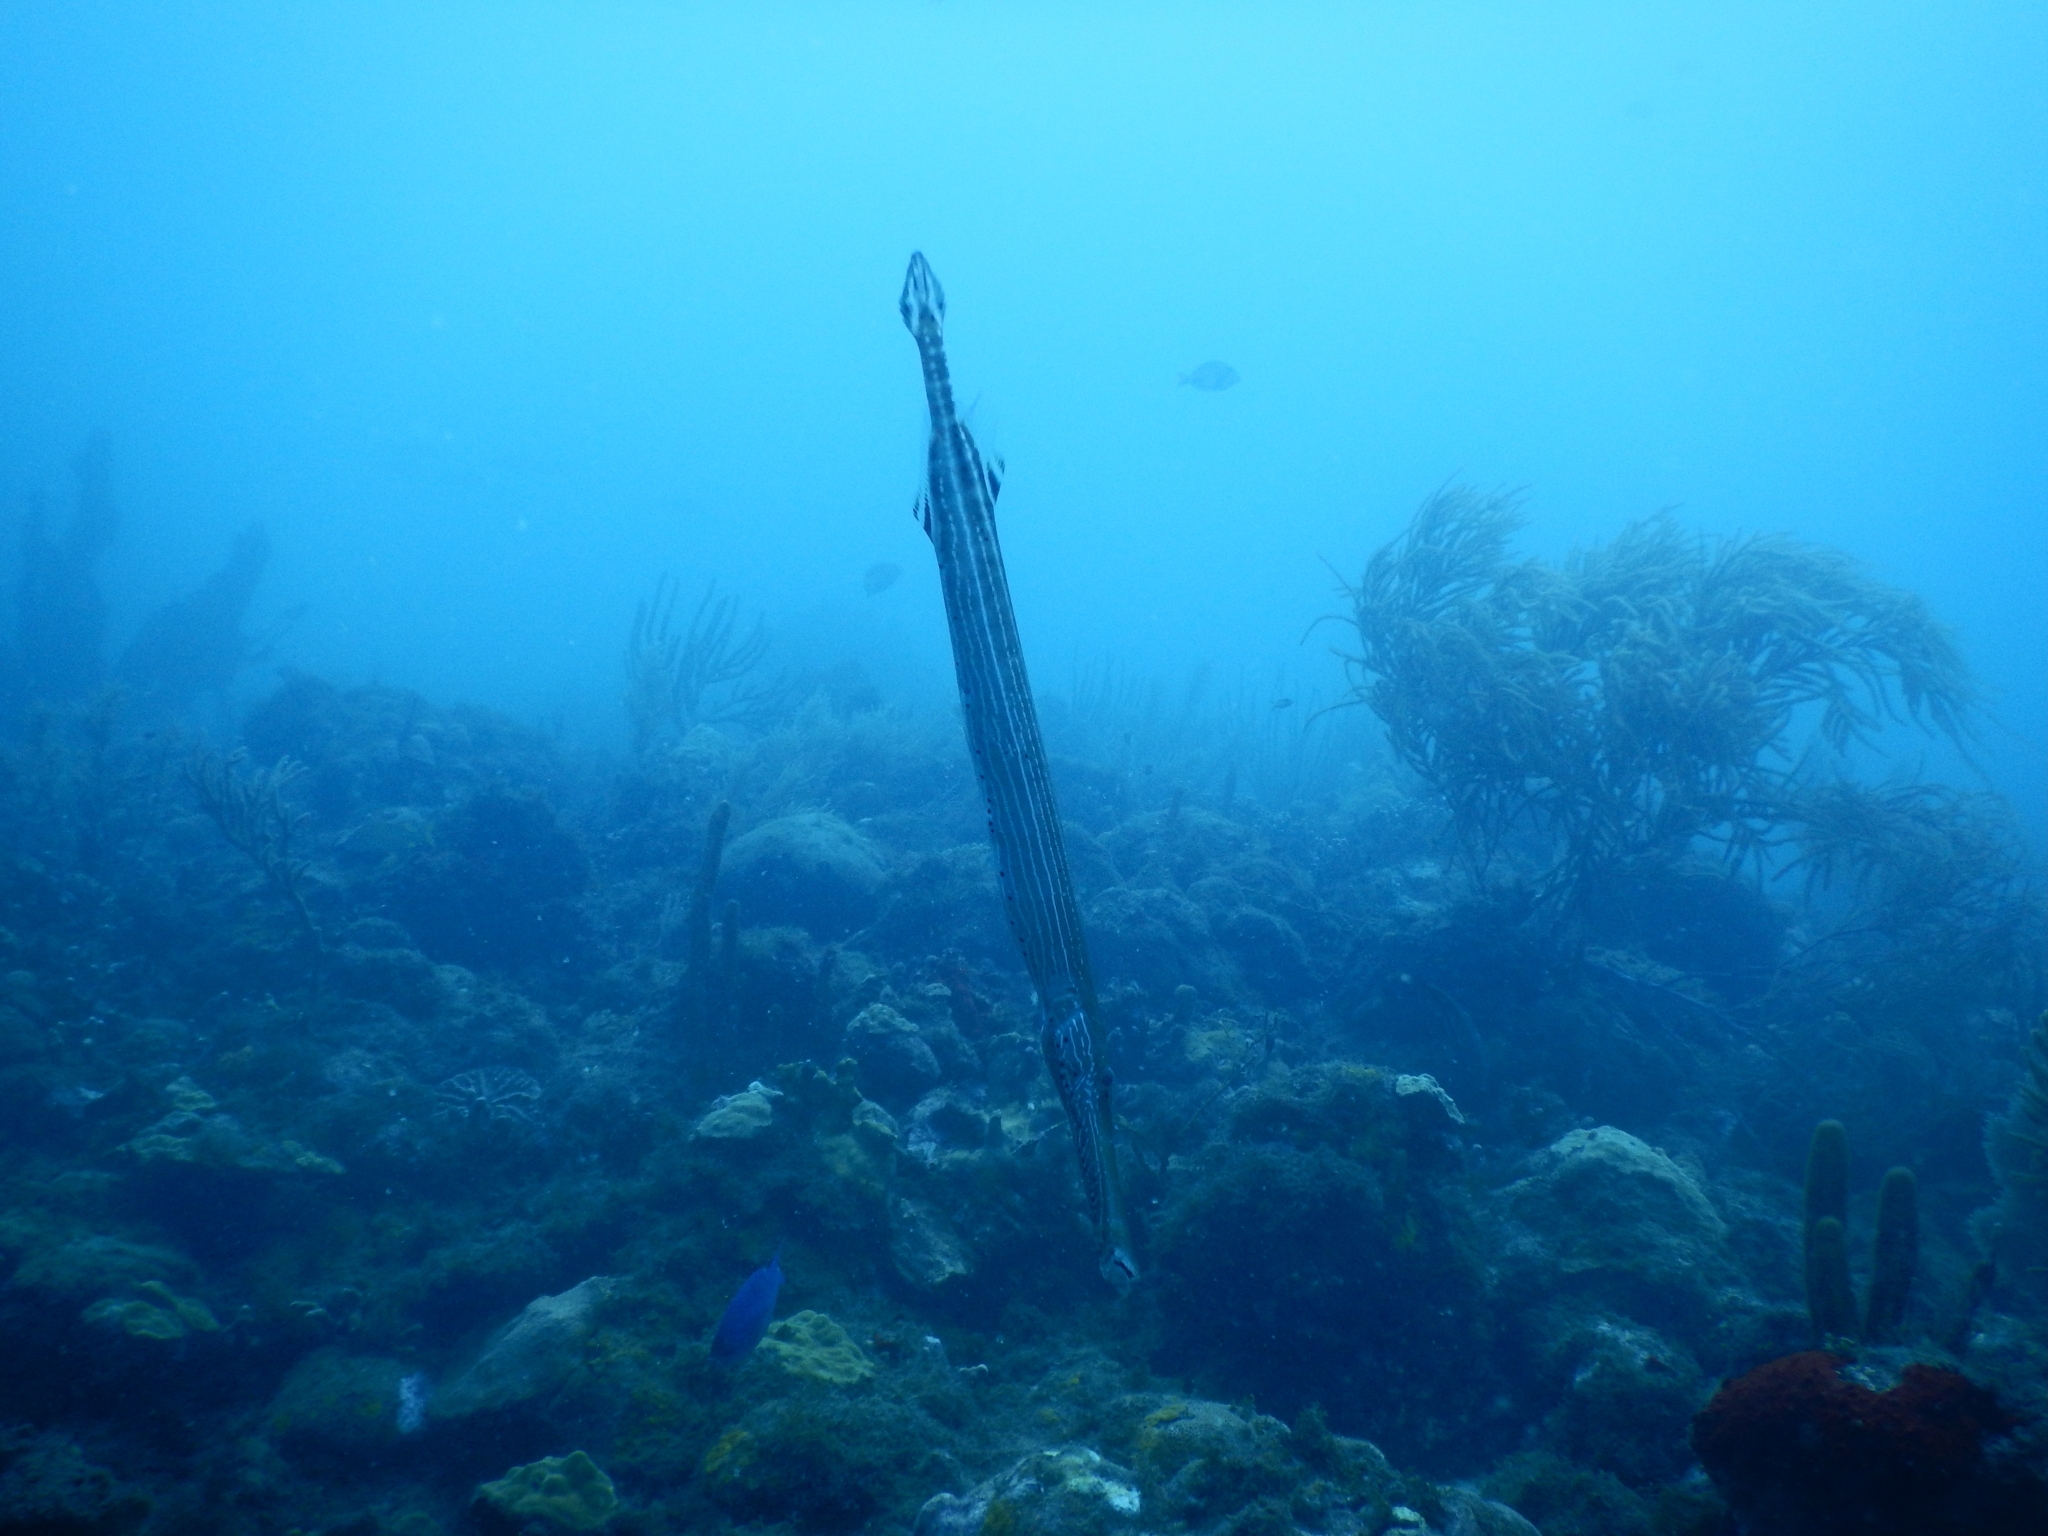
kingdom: Animalia
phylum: Chordata
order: Syngnathiformes
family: Aulostomidae
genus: Aulostomus
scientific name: Aulostomus maculatus
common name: West atlantic trumpetfish
